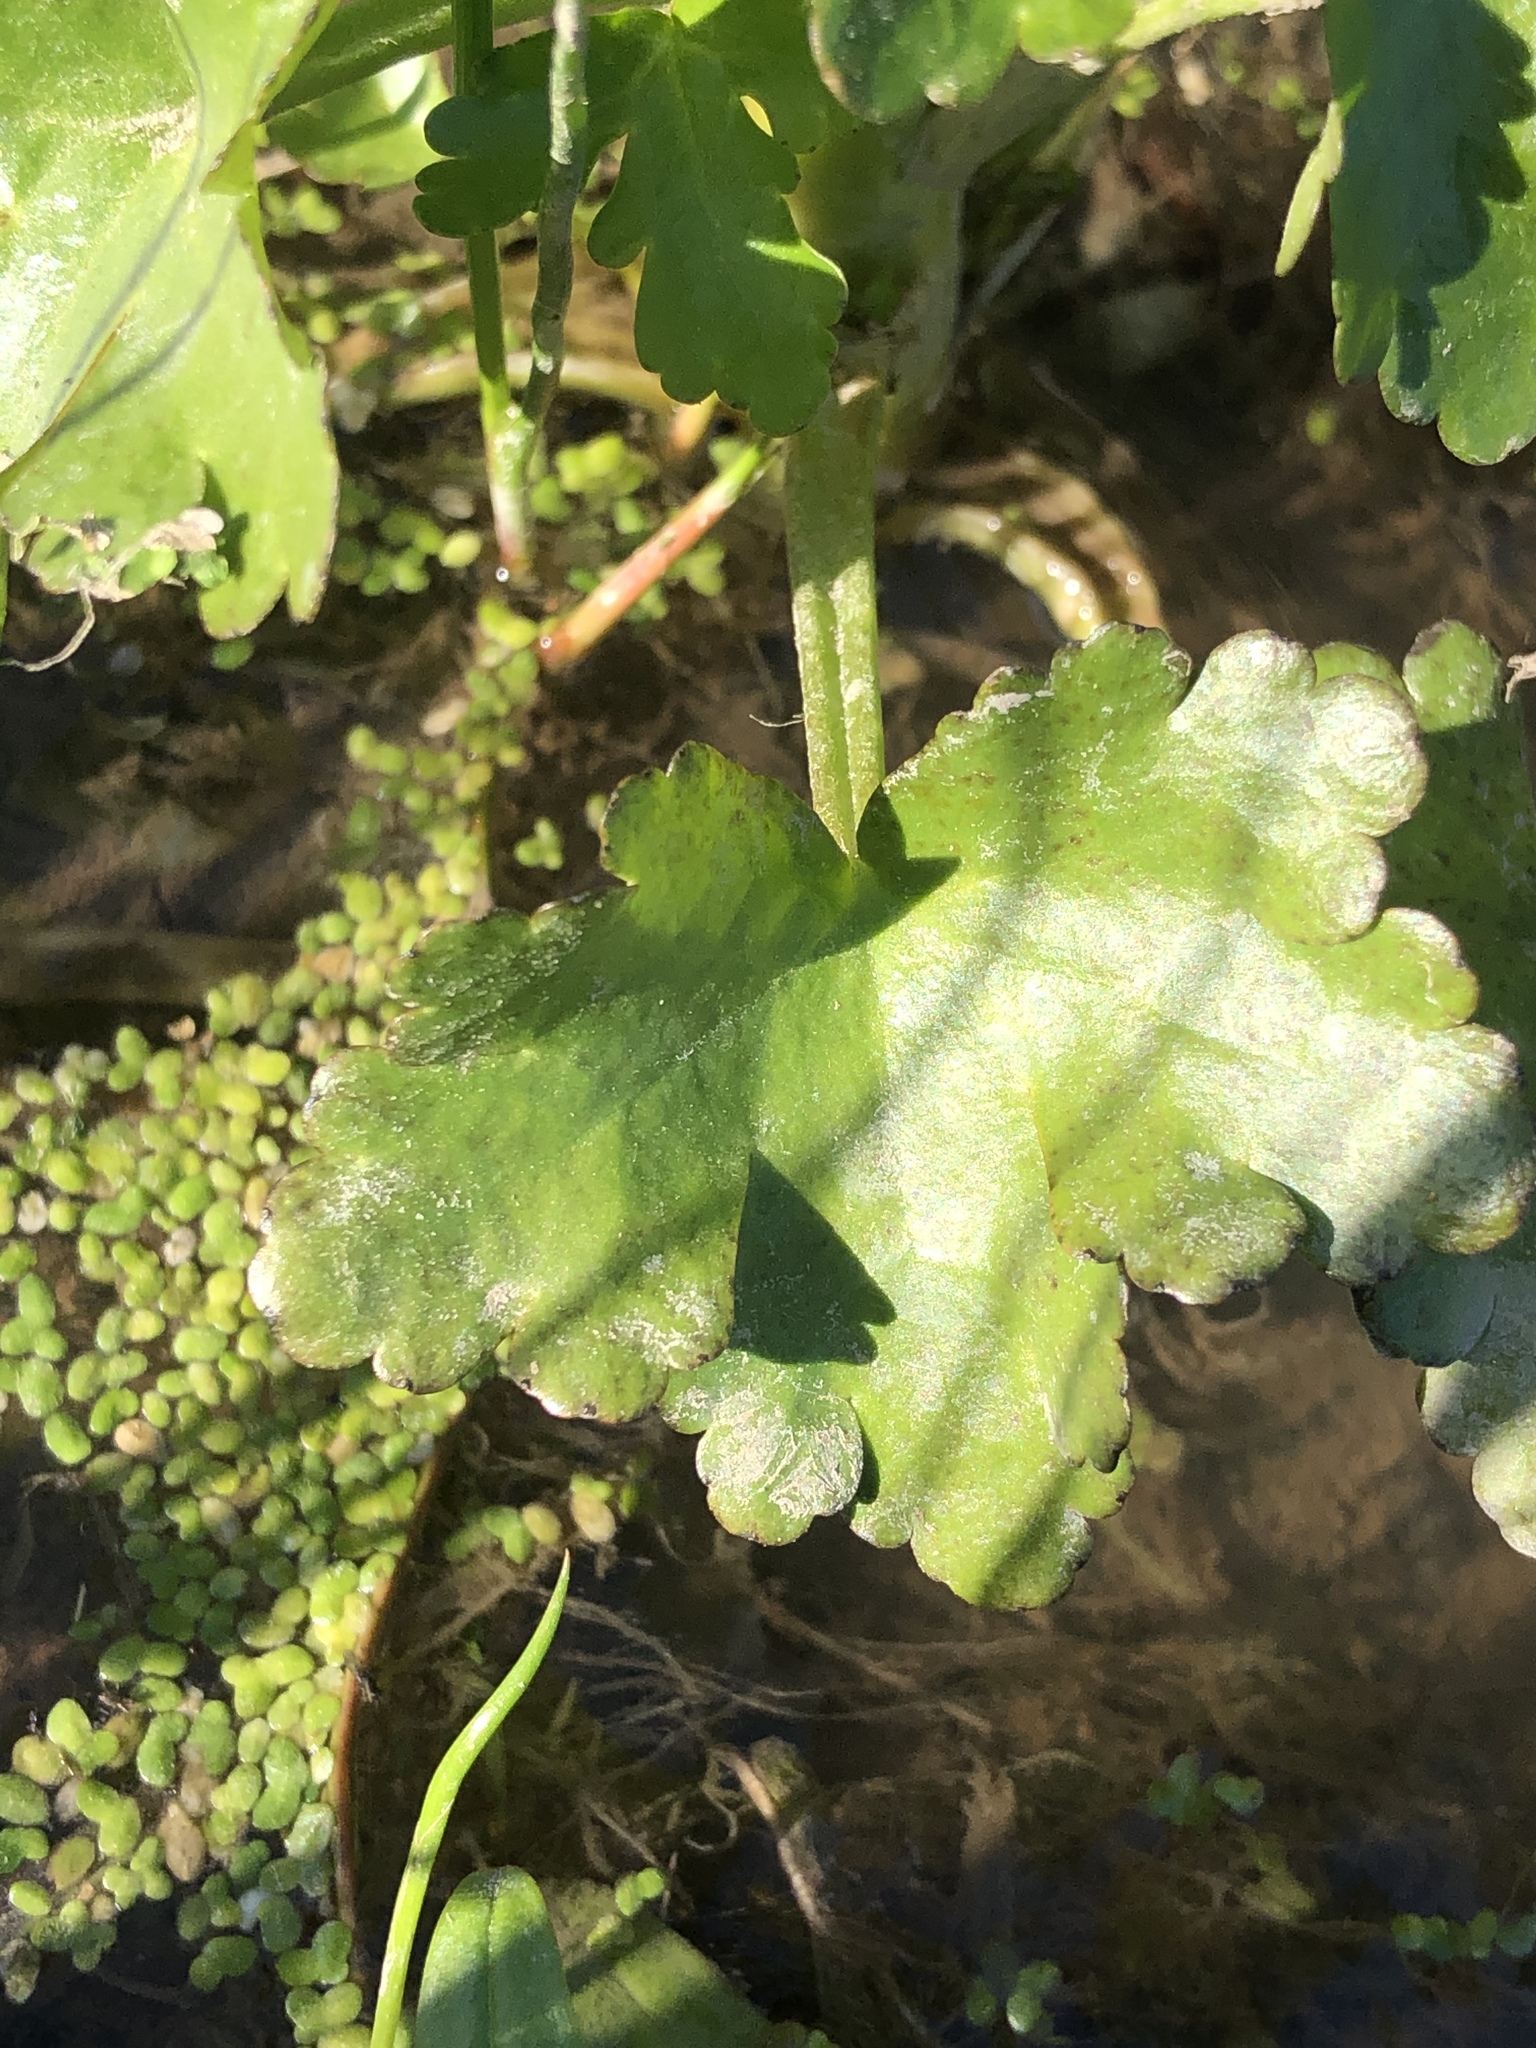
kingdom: Plantae
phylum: Tracheophyta
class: Magnoliopsida
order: Ranunculales
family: Ranunculaceae
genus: Ranunculus
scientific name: Ranunculus sceleratus
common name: Celery-leaved buttercup
